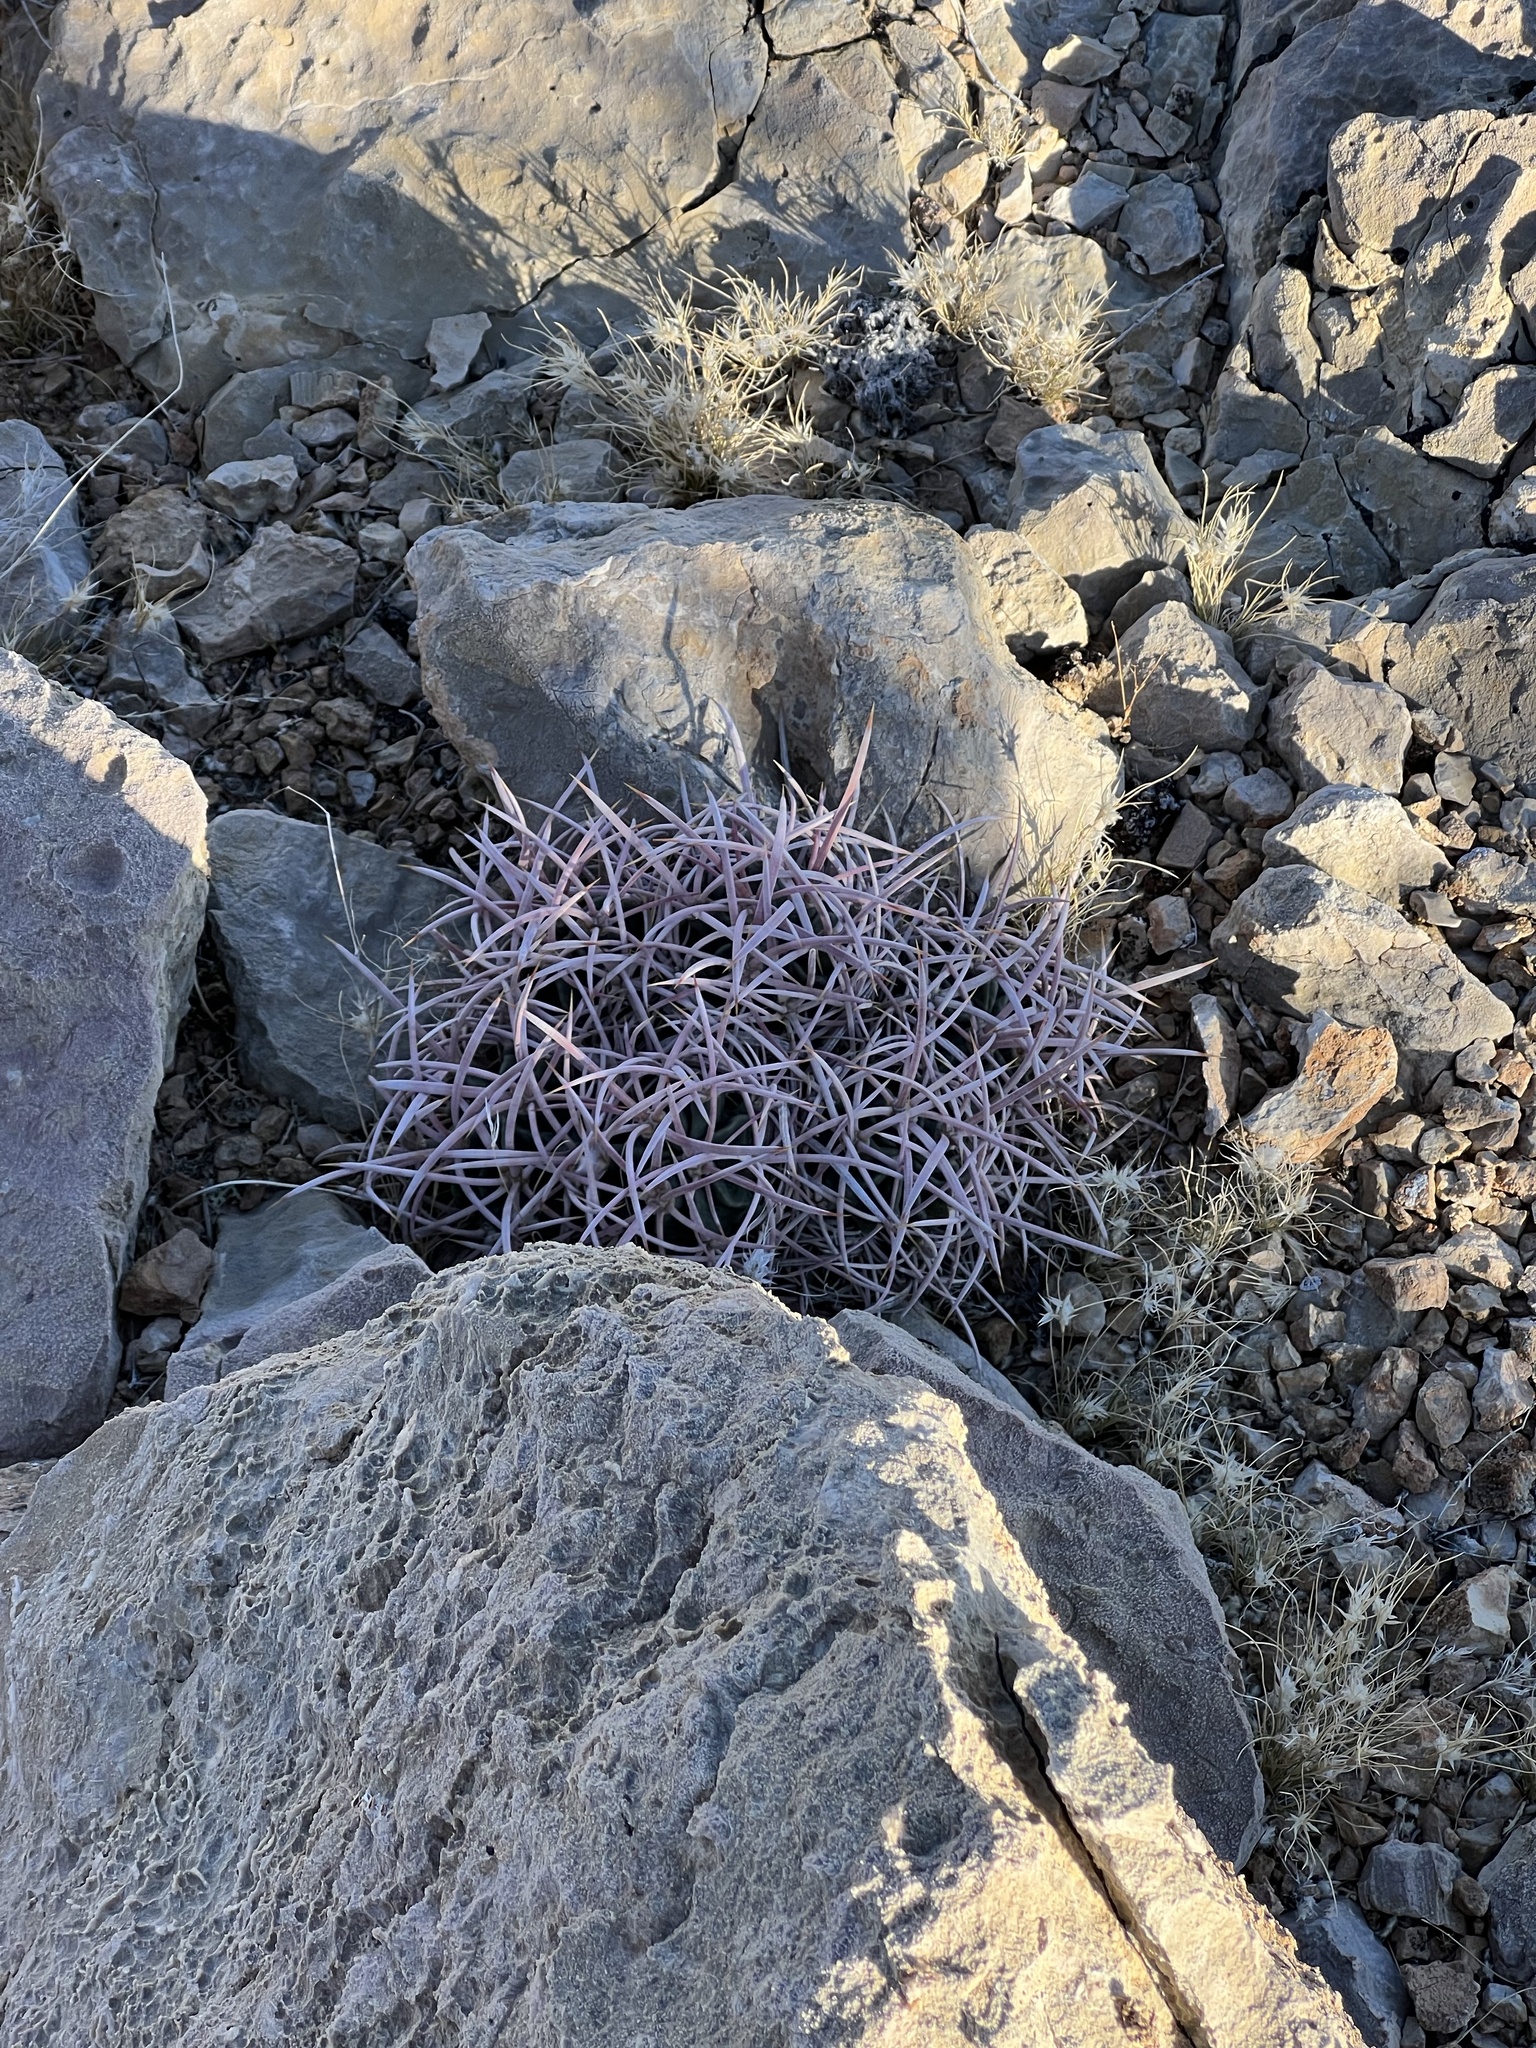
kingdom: Plantae
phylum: Tracheophyta
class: Magnoliopsida
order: Caryophyllales
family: Cactaceae
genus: Echinocactus
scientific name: Echinocactus polycephalus
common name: Cottontop cactus
